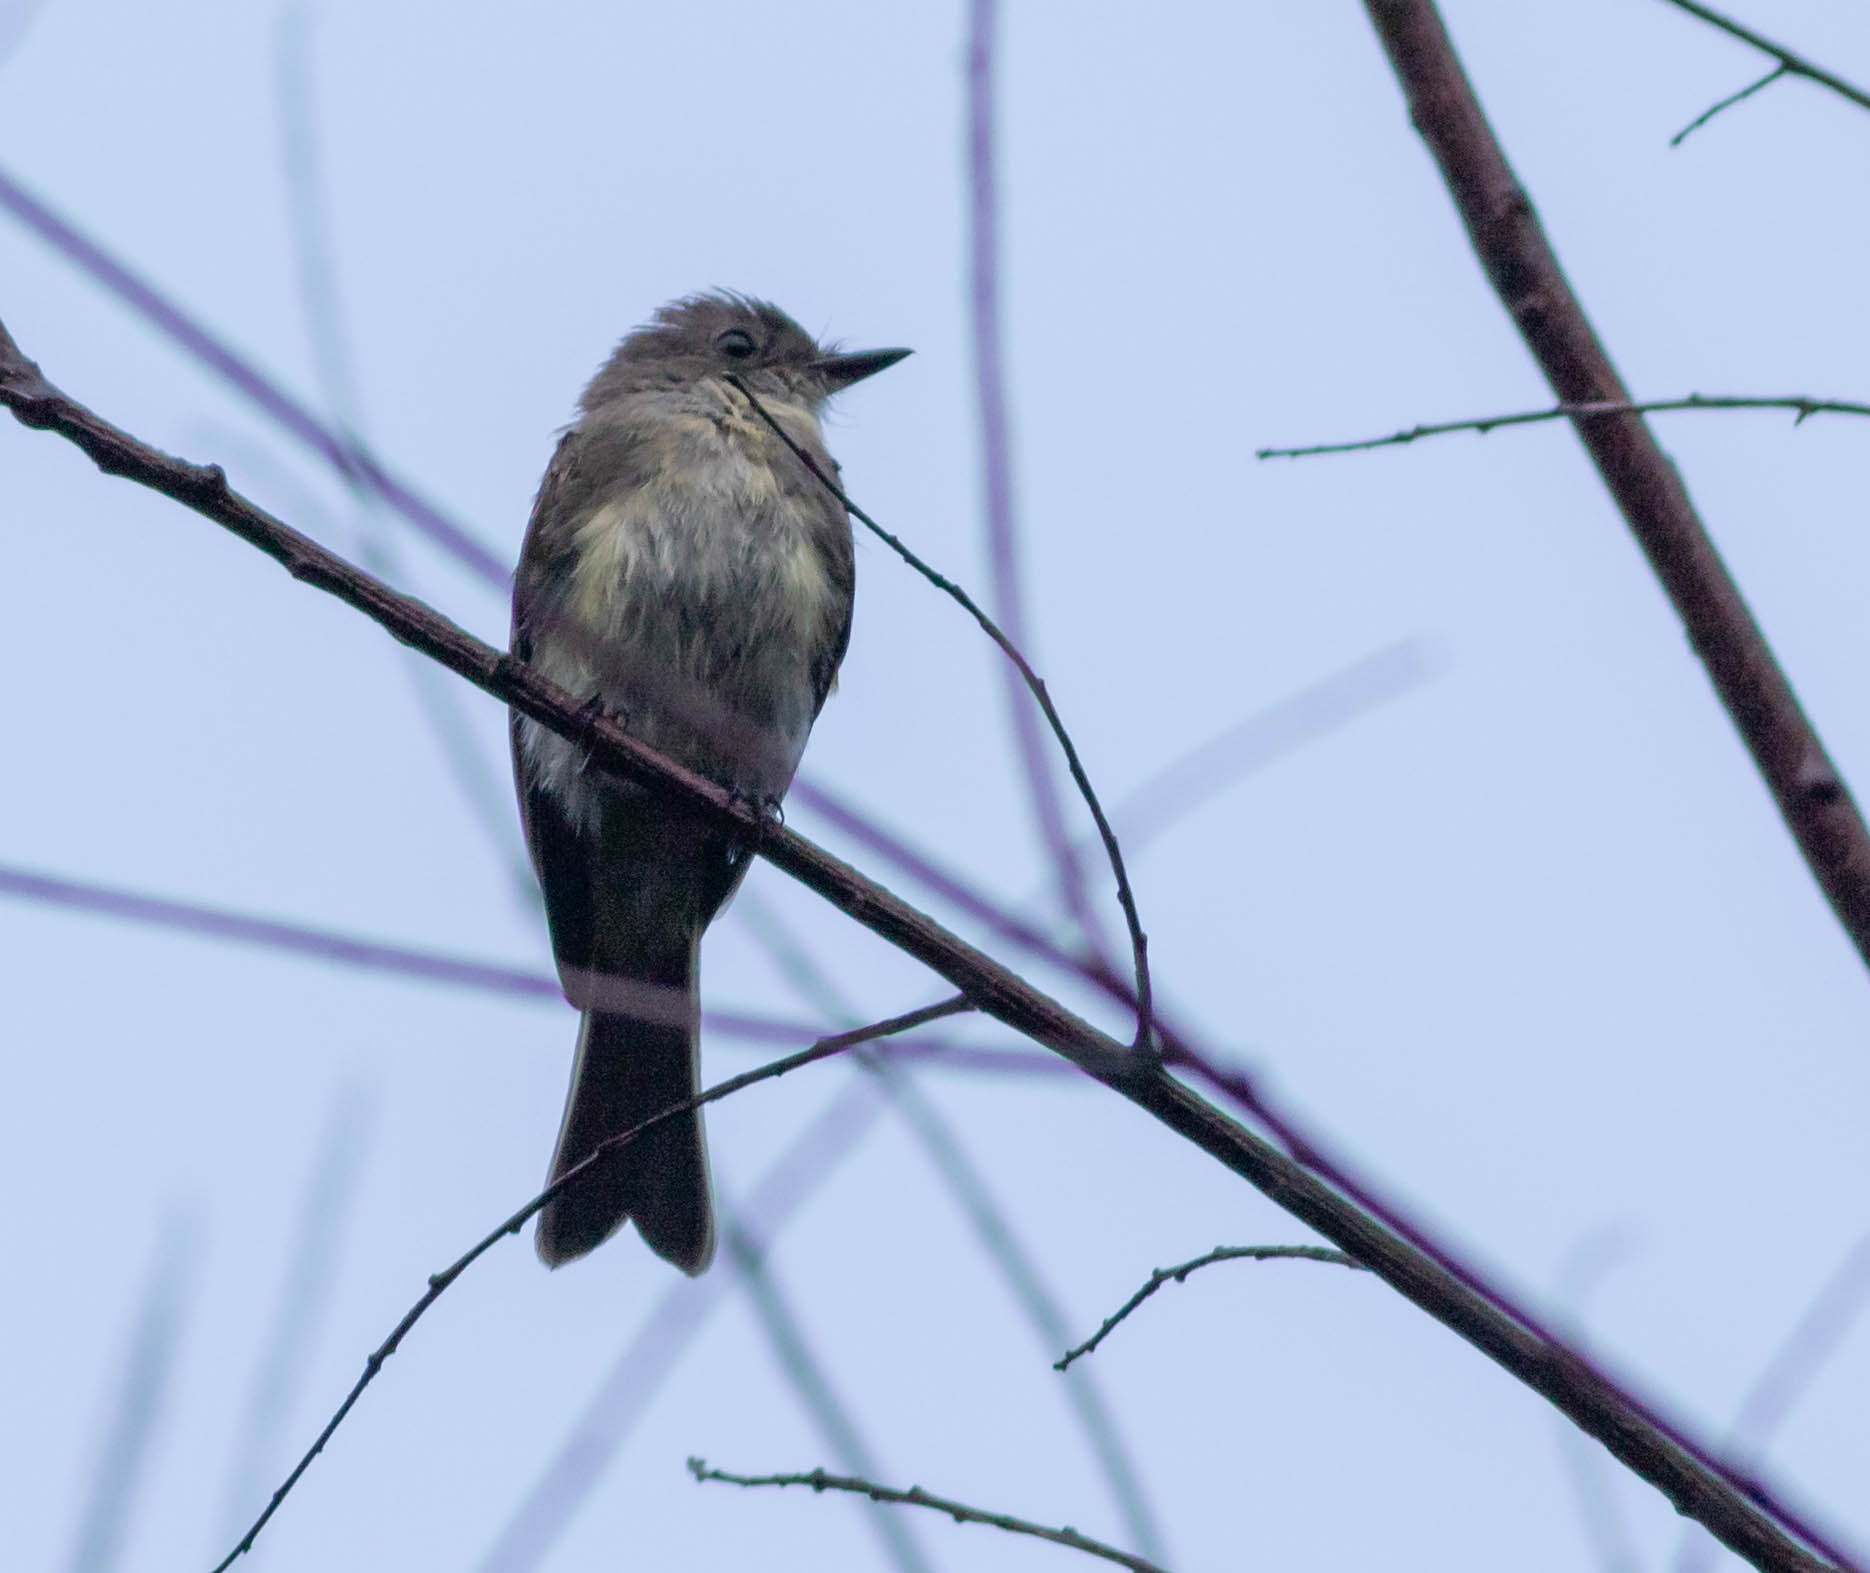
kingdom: Animalia
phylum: Chordata
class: Aves
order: Passeriformes
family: Tyrannidae
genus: Sayornis
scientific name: Sayornis phoebe
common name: Eastern phoebe
